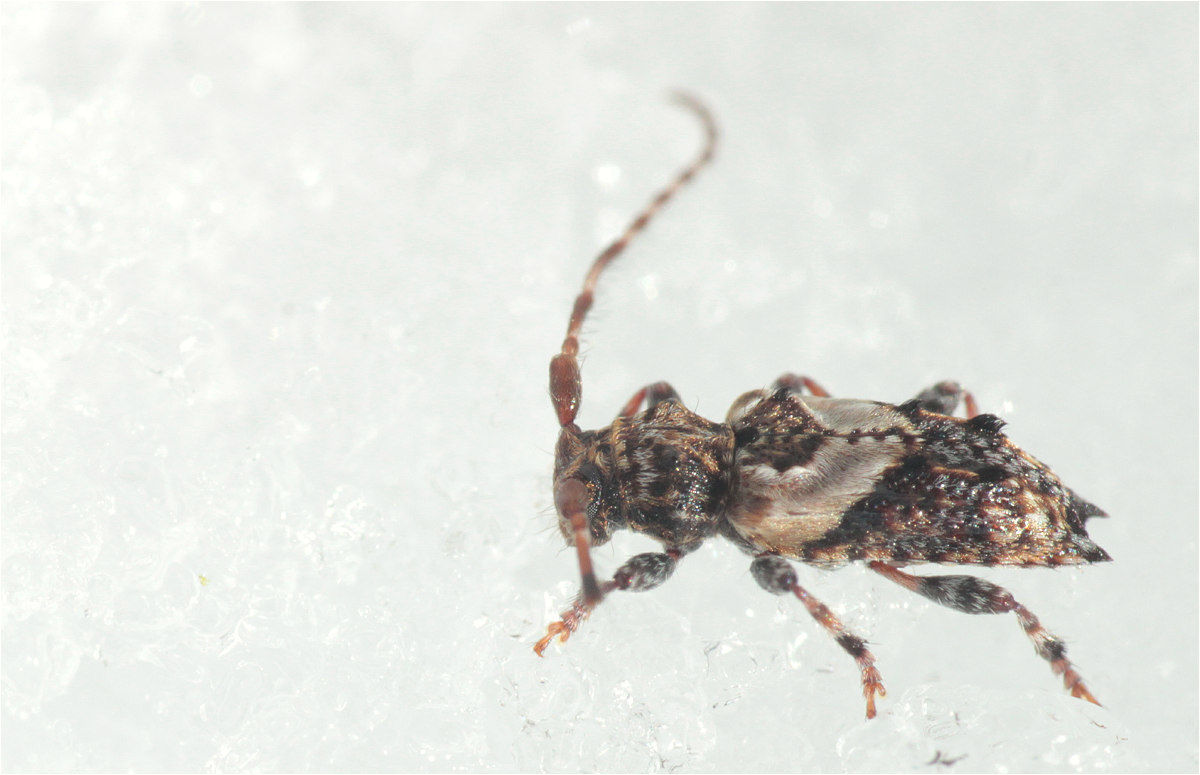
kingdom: Animalia
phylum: Arthropoda
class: Insecta
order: Coleoptera
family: Cerambycidae
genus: Pogonocherus
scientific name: Pogonocherus hispidus
